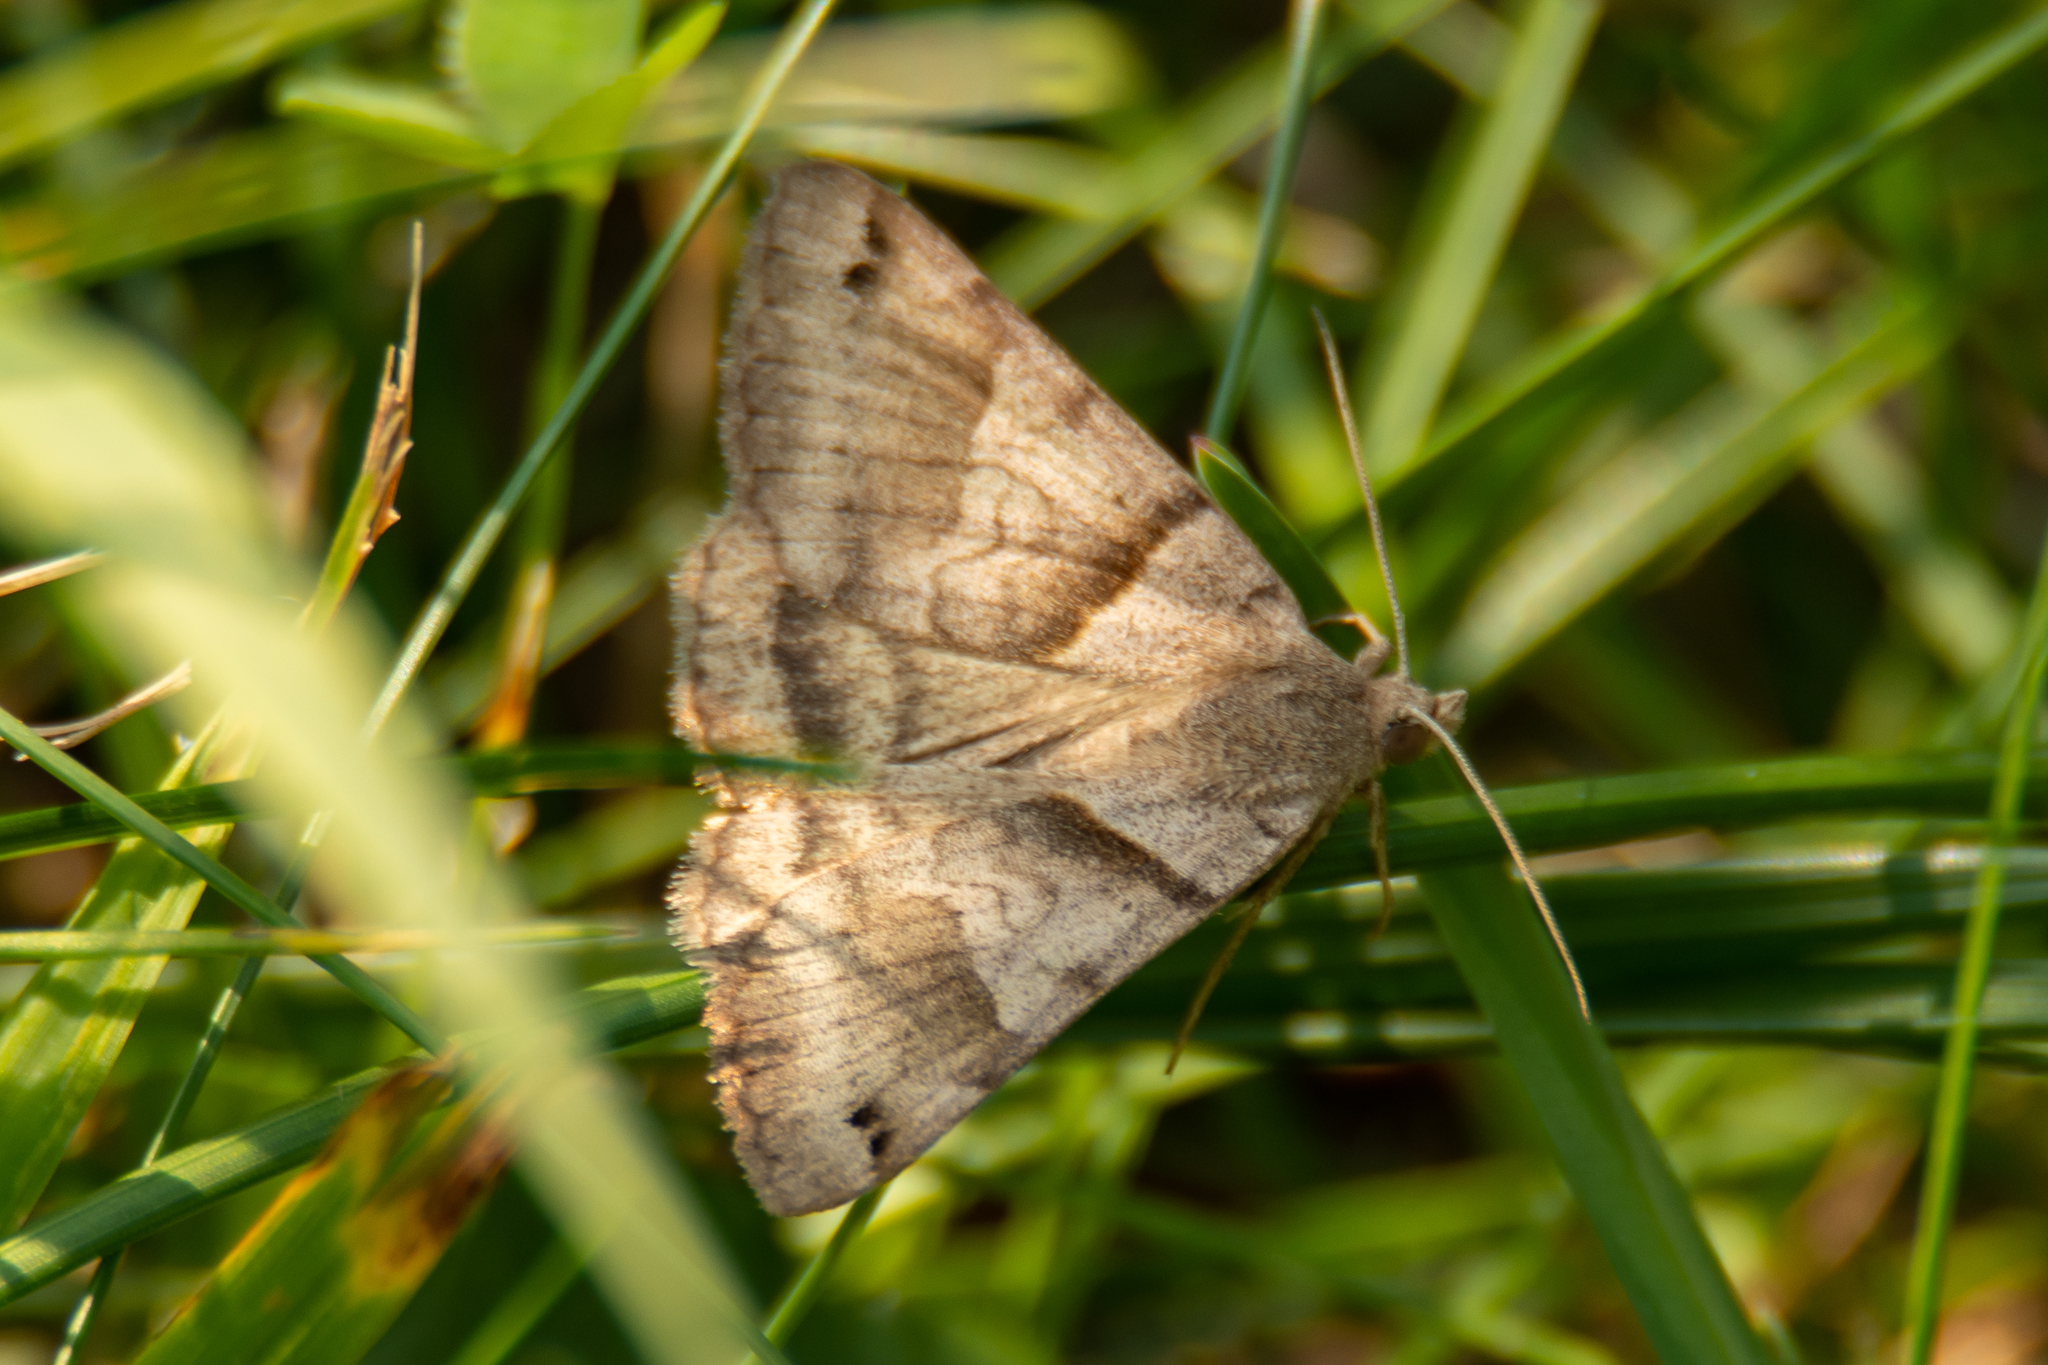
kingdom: Animalia
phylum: Arthropoda
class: Insecta
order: Lepidoptera
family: Erebidae
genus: Caenurgina
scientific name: Caenurgina crassiuscula
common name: Double-barred
